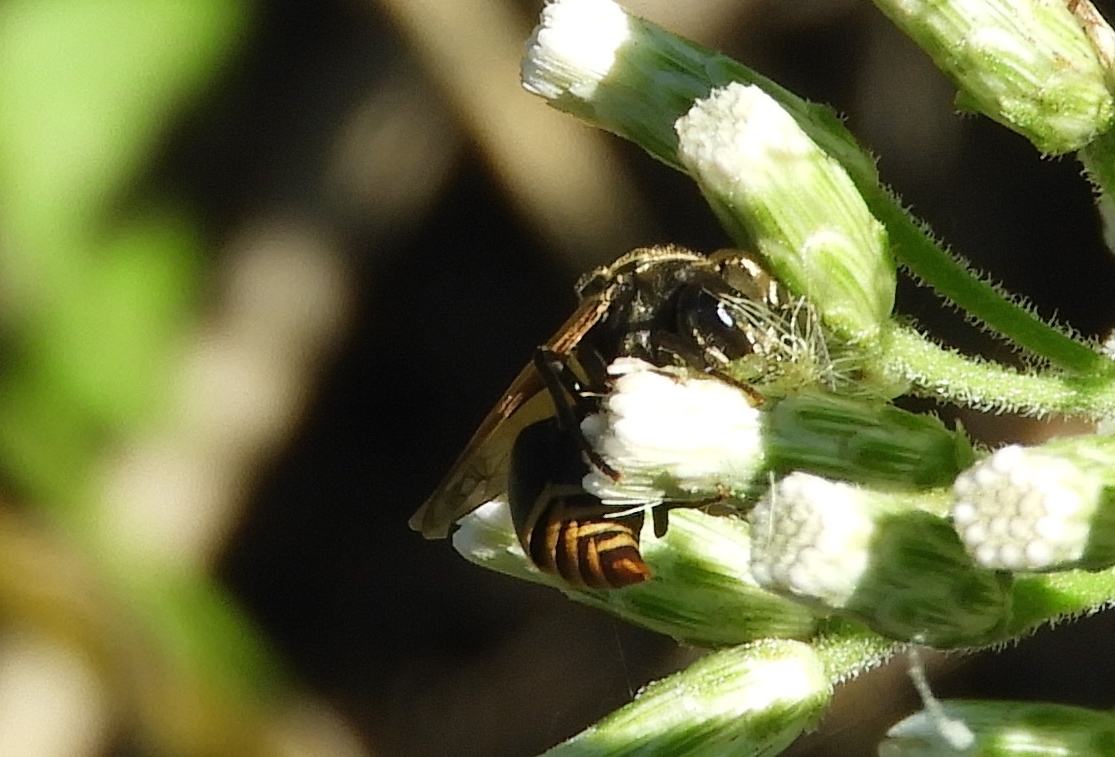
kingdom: Animalia
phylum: Arthropoda
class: Insecta
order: Hymenoptera
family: Vespidae
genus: Brachygastra
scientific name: Brachygastra mellifica
